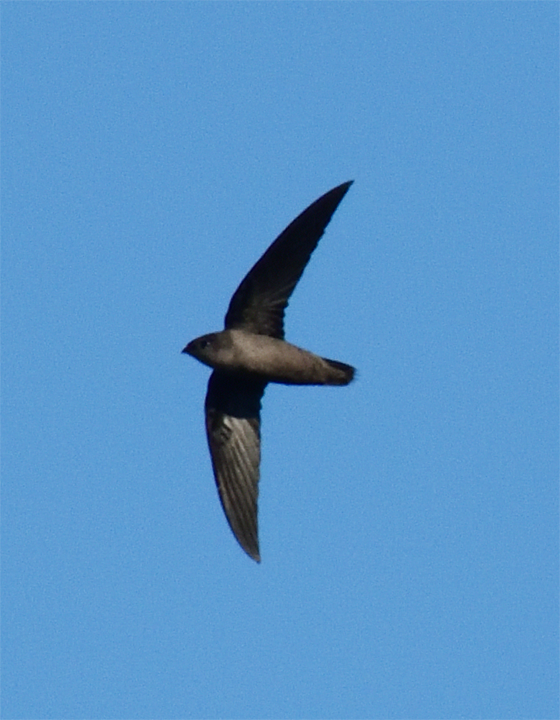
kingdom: Animalia
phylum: Chordata
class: Aves
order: Apodiformes
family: Apodidae
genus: Chaetura
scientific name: Chaetura pelagica
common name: Chimney swift
